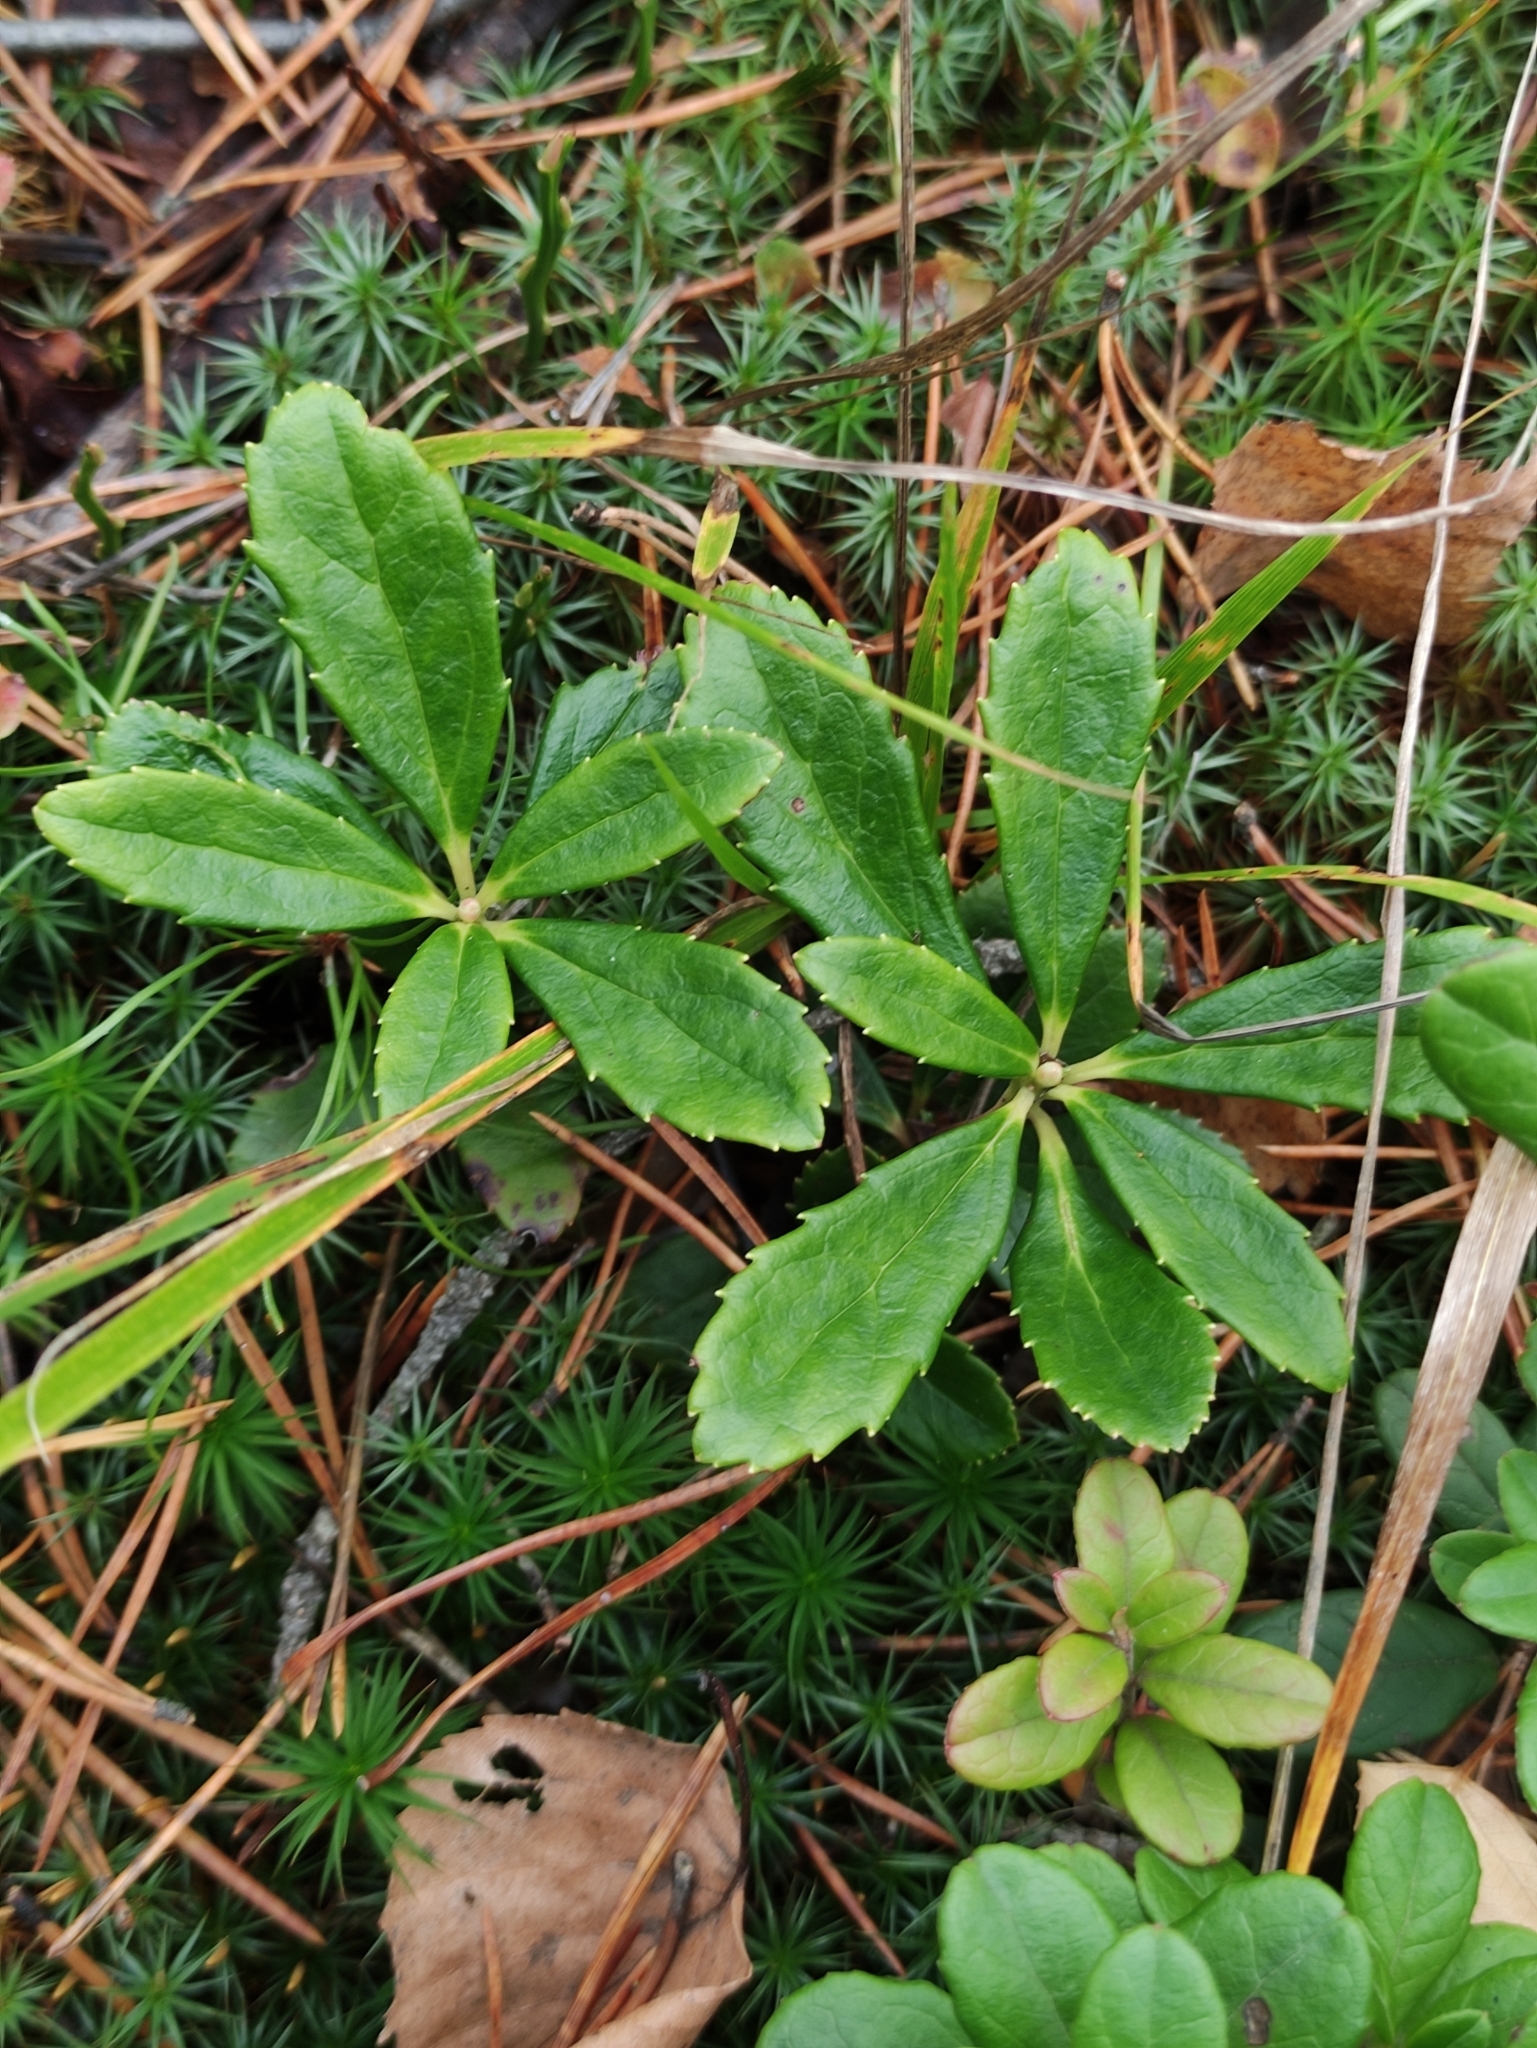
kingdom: Plantae
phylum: Tracheophyta
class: Magnoliopsida
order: Ericales
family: Ericaceae
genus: Chimaphila
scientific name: Chimaphila umbellata
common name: Pipsissewa
